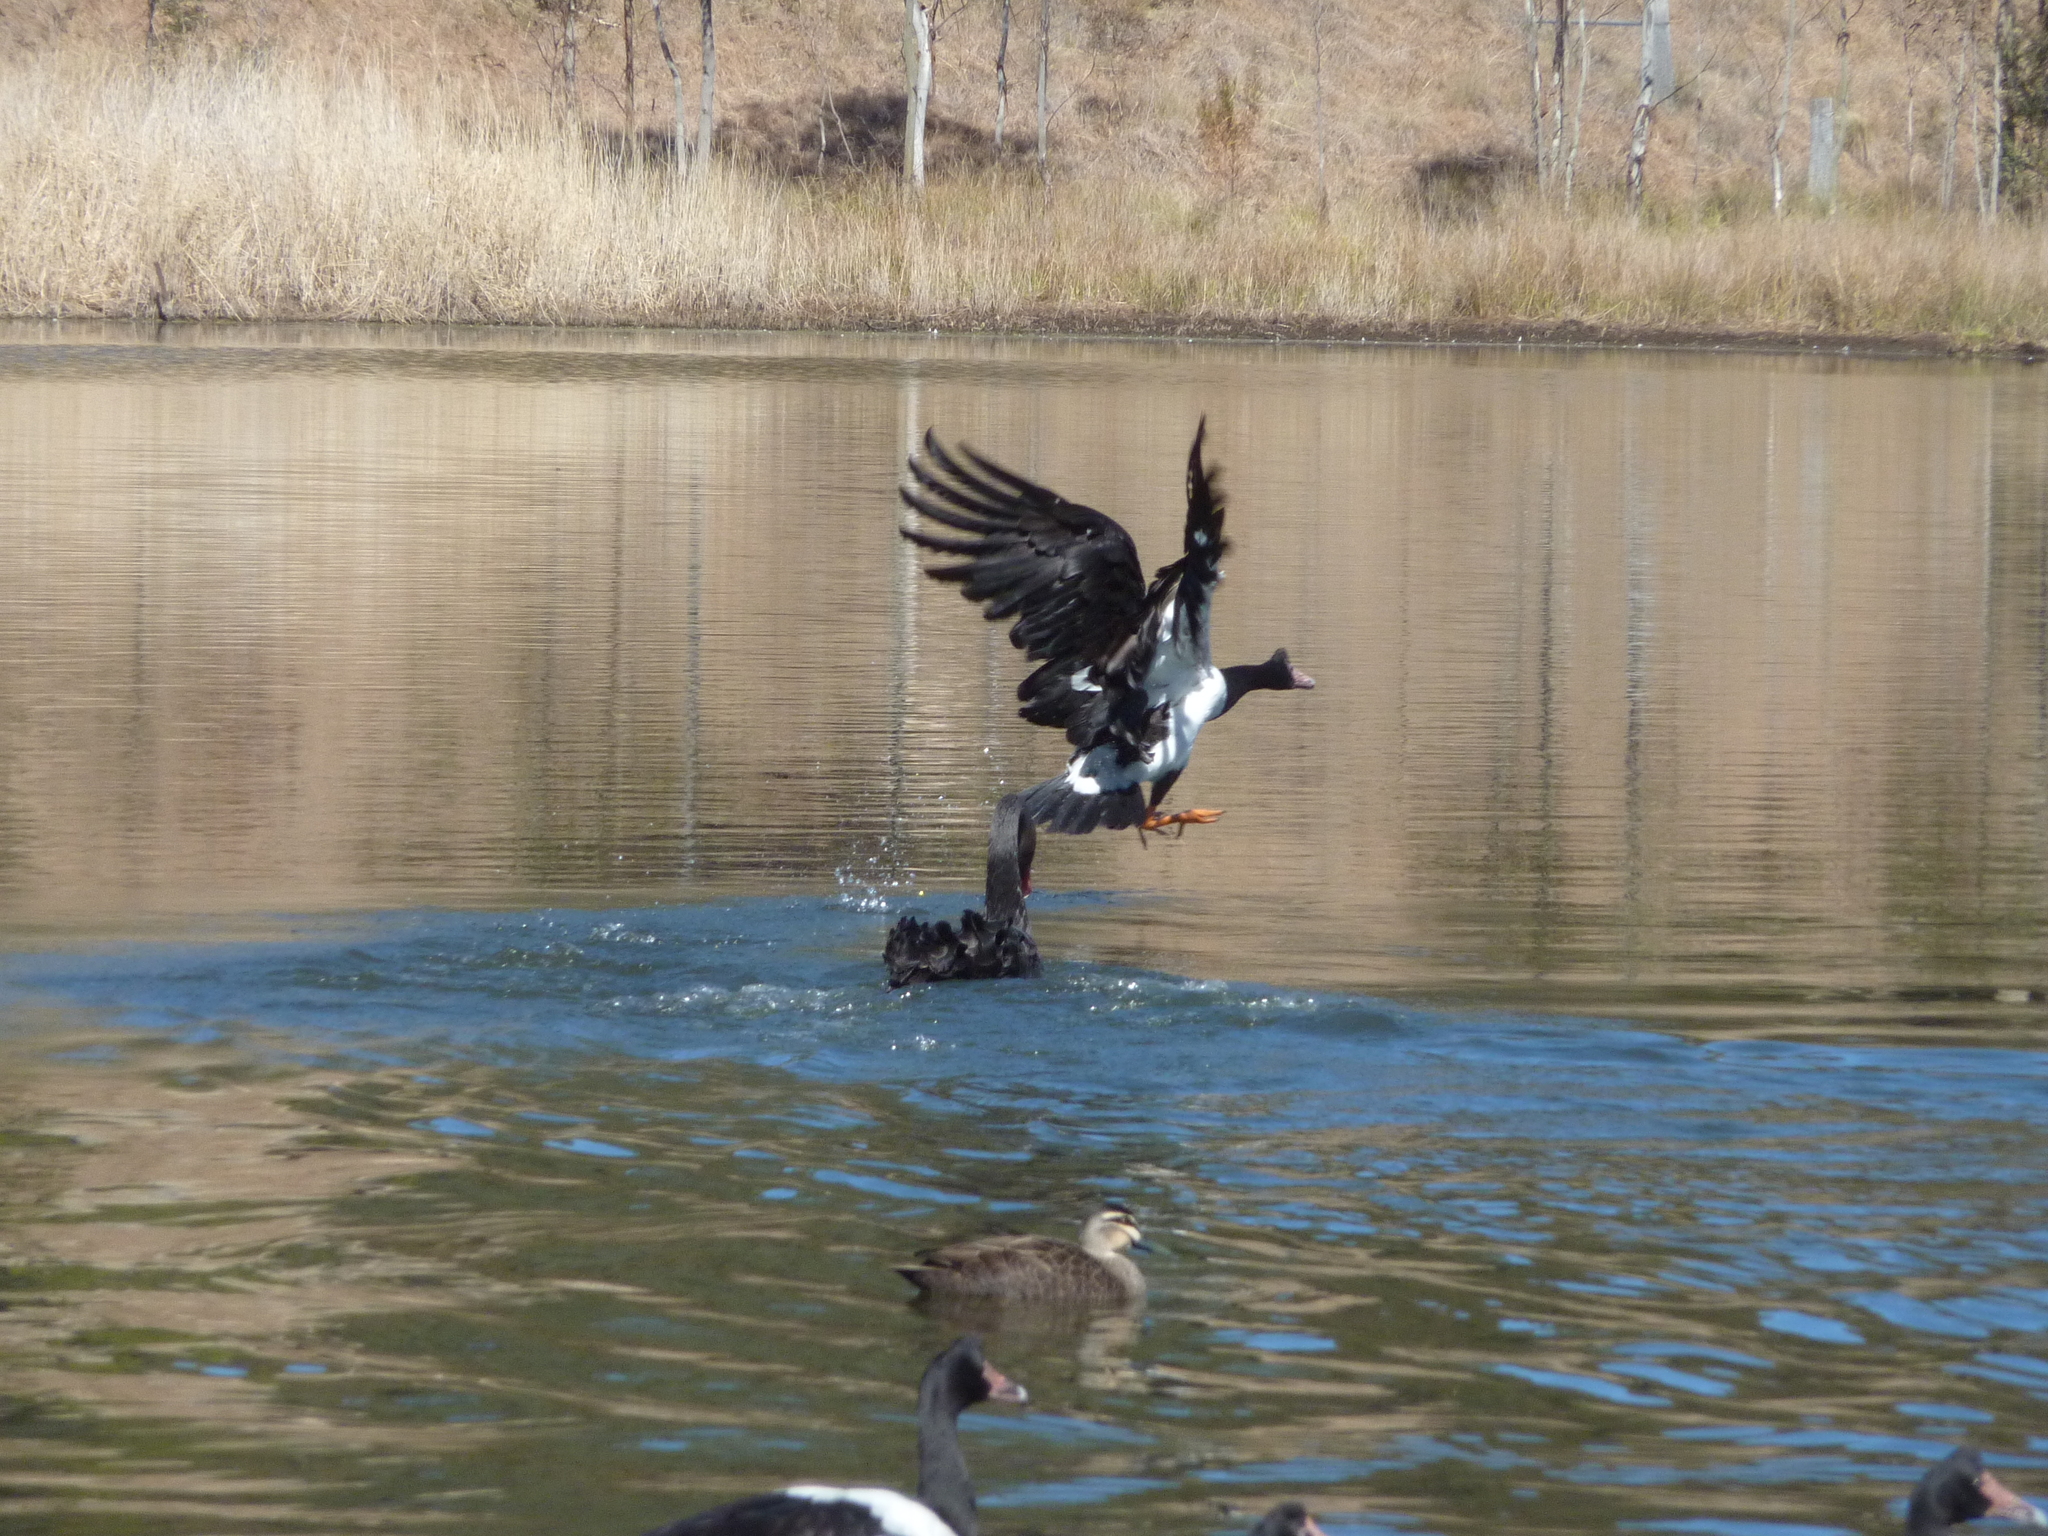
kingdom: Animalia
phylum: Chordata
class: Aves
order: Anseriformes
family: Anseranatidae
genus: Anseranas
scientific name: Anseranas semipalmata
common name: Magpie goose
